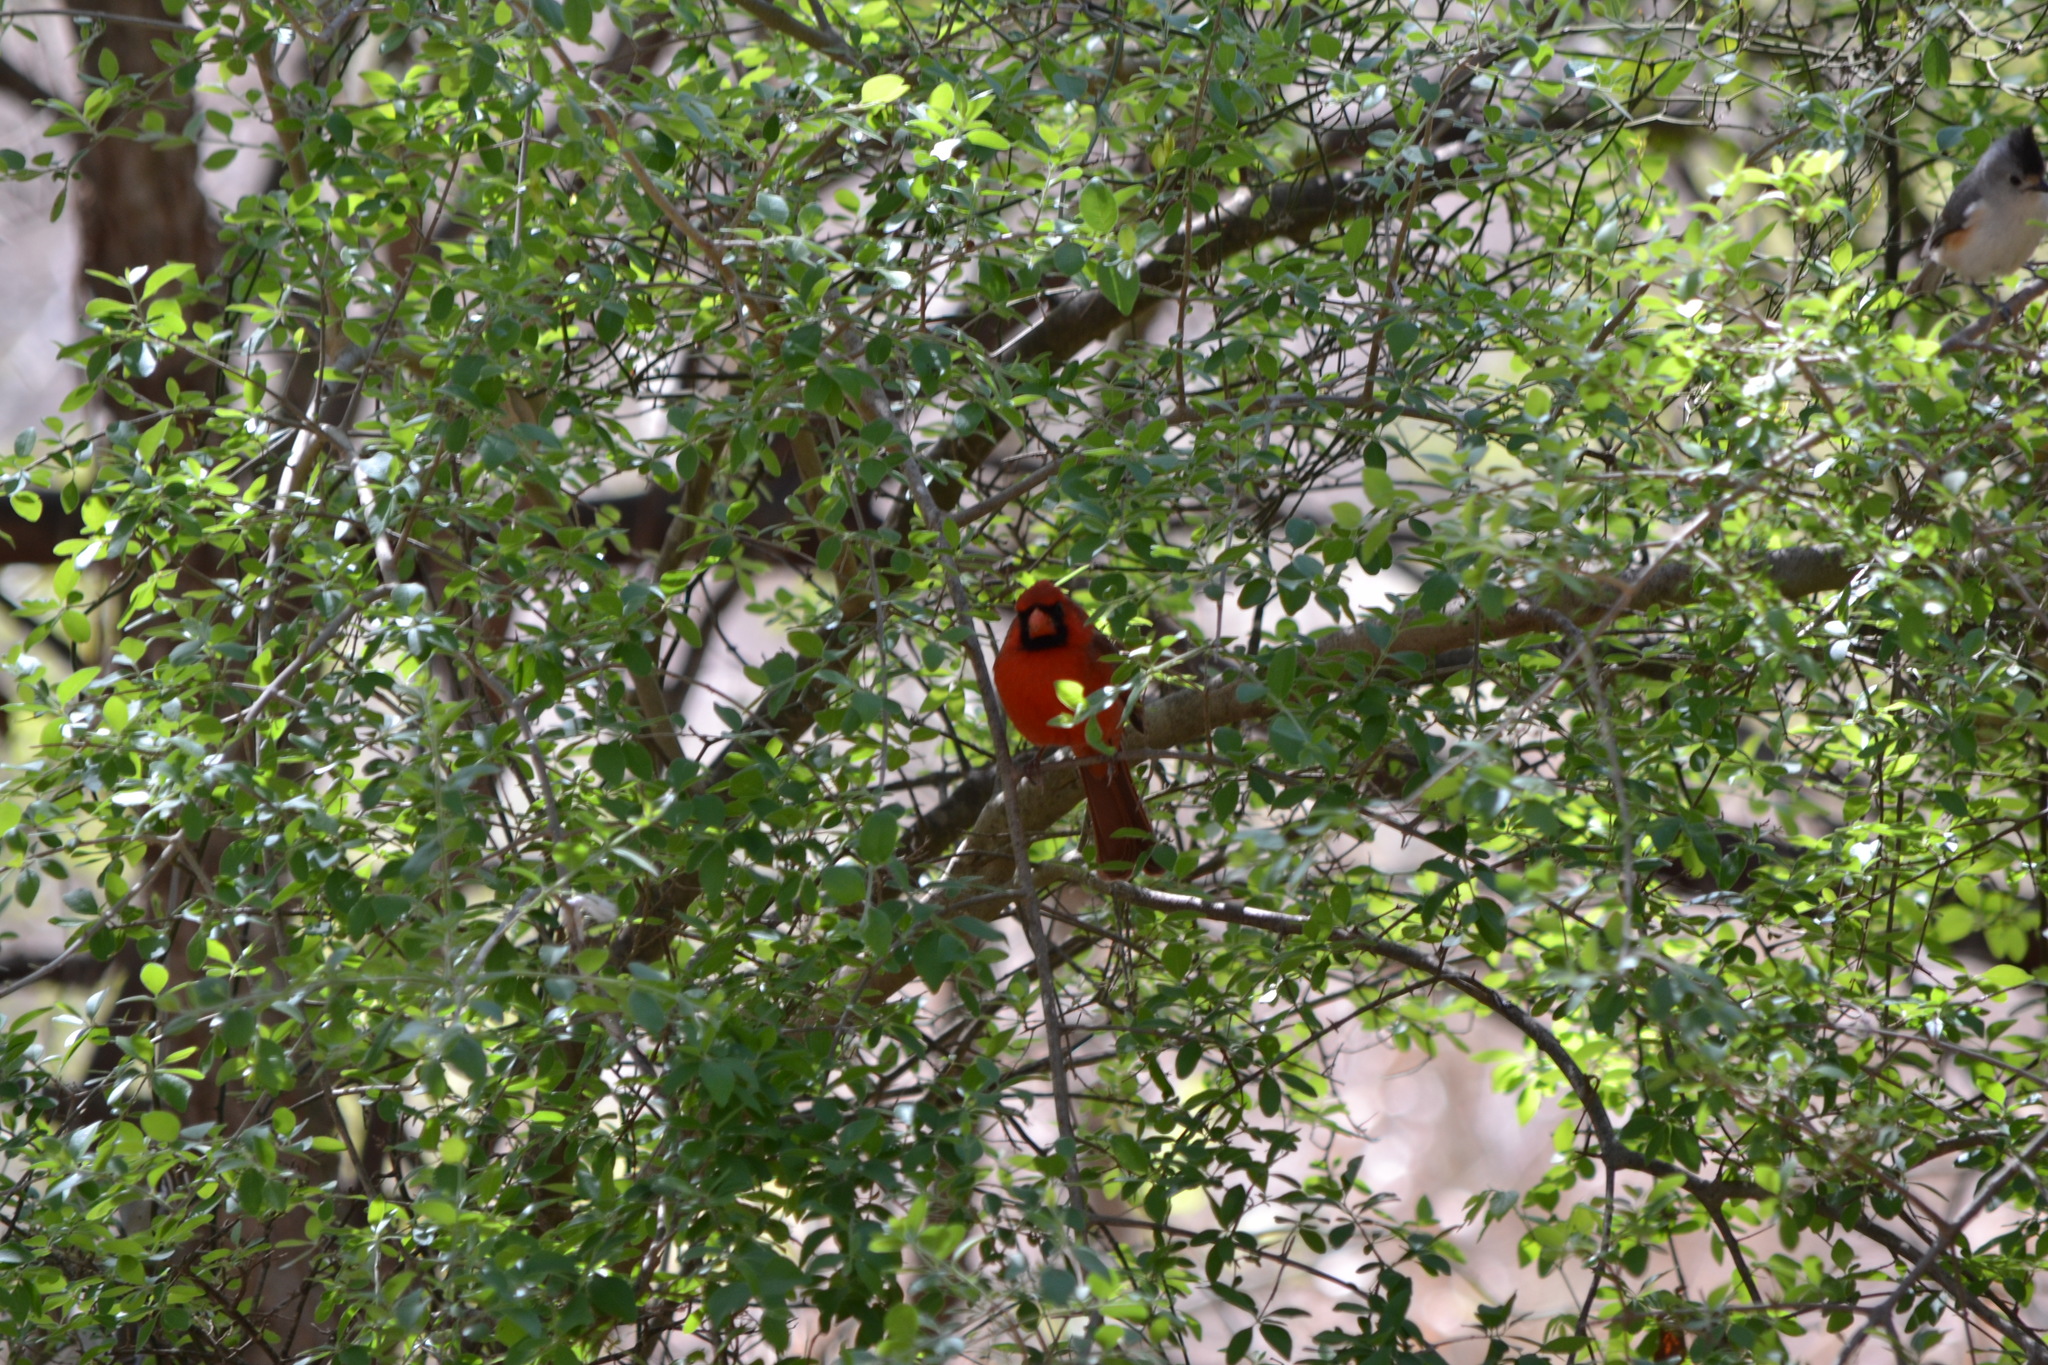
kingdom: Animalia
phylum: Chordata
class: Aves
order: Passeriformes
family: Cardinalidae
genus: Cardinalis
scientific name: Cardinalis cardinalis
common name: Northern cardinal
